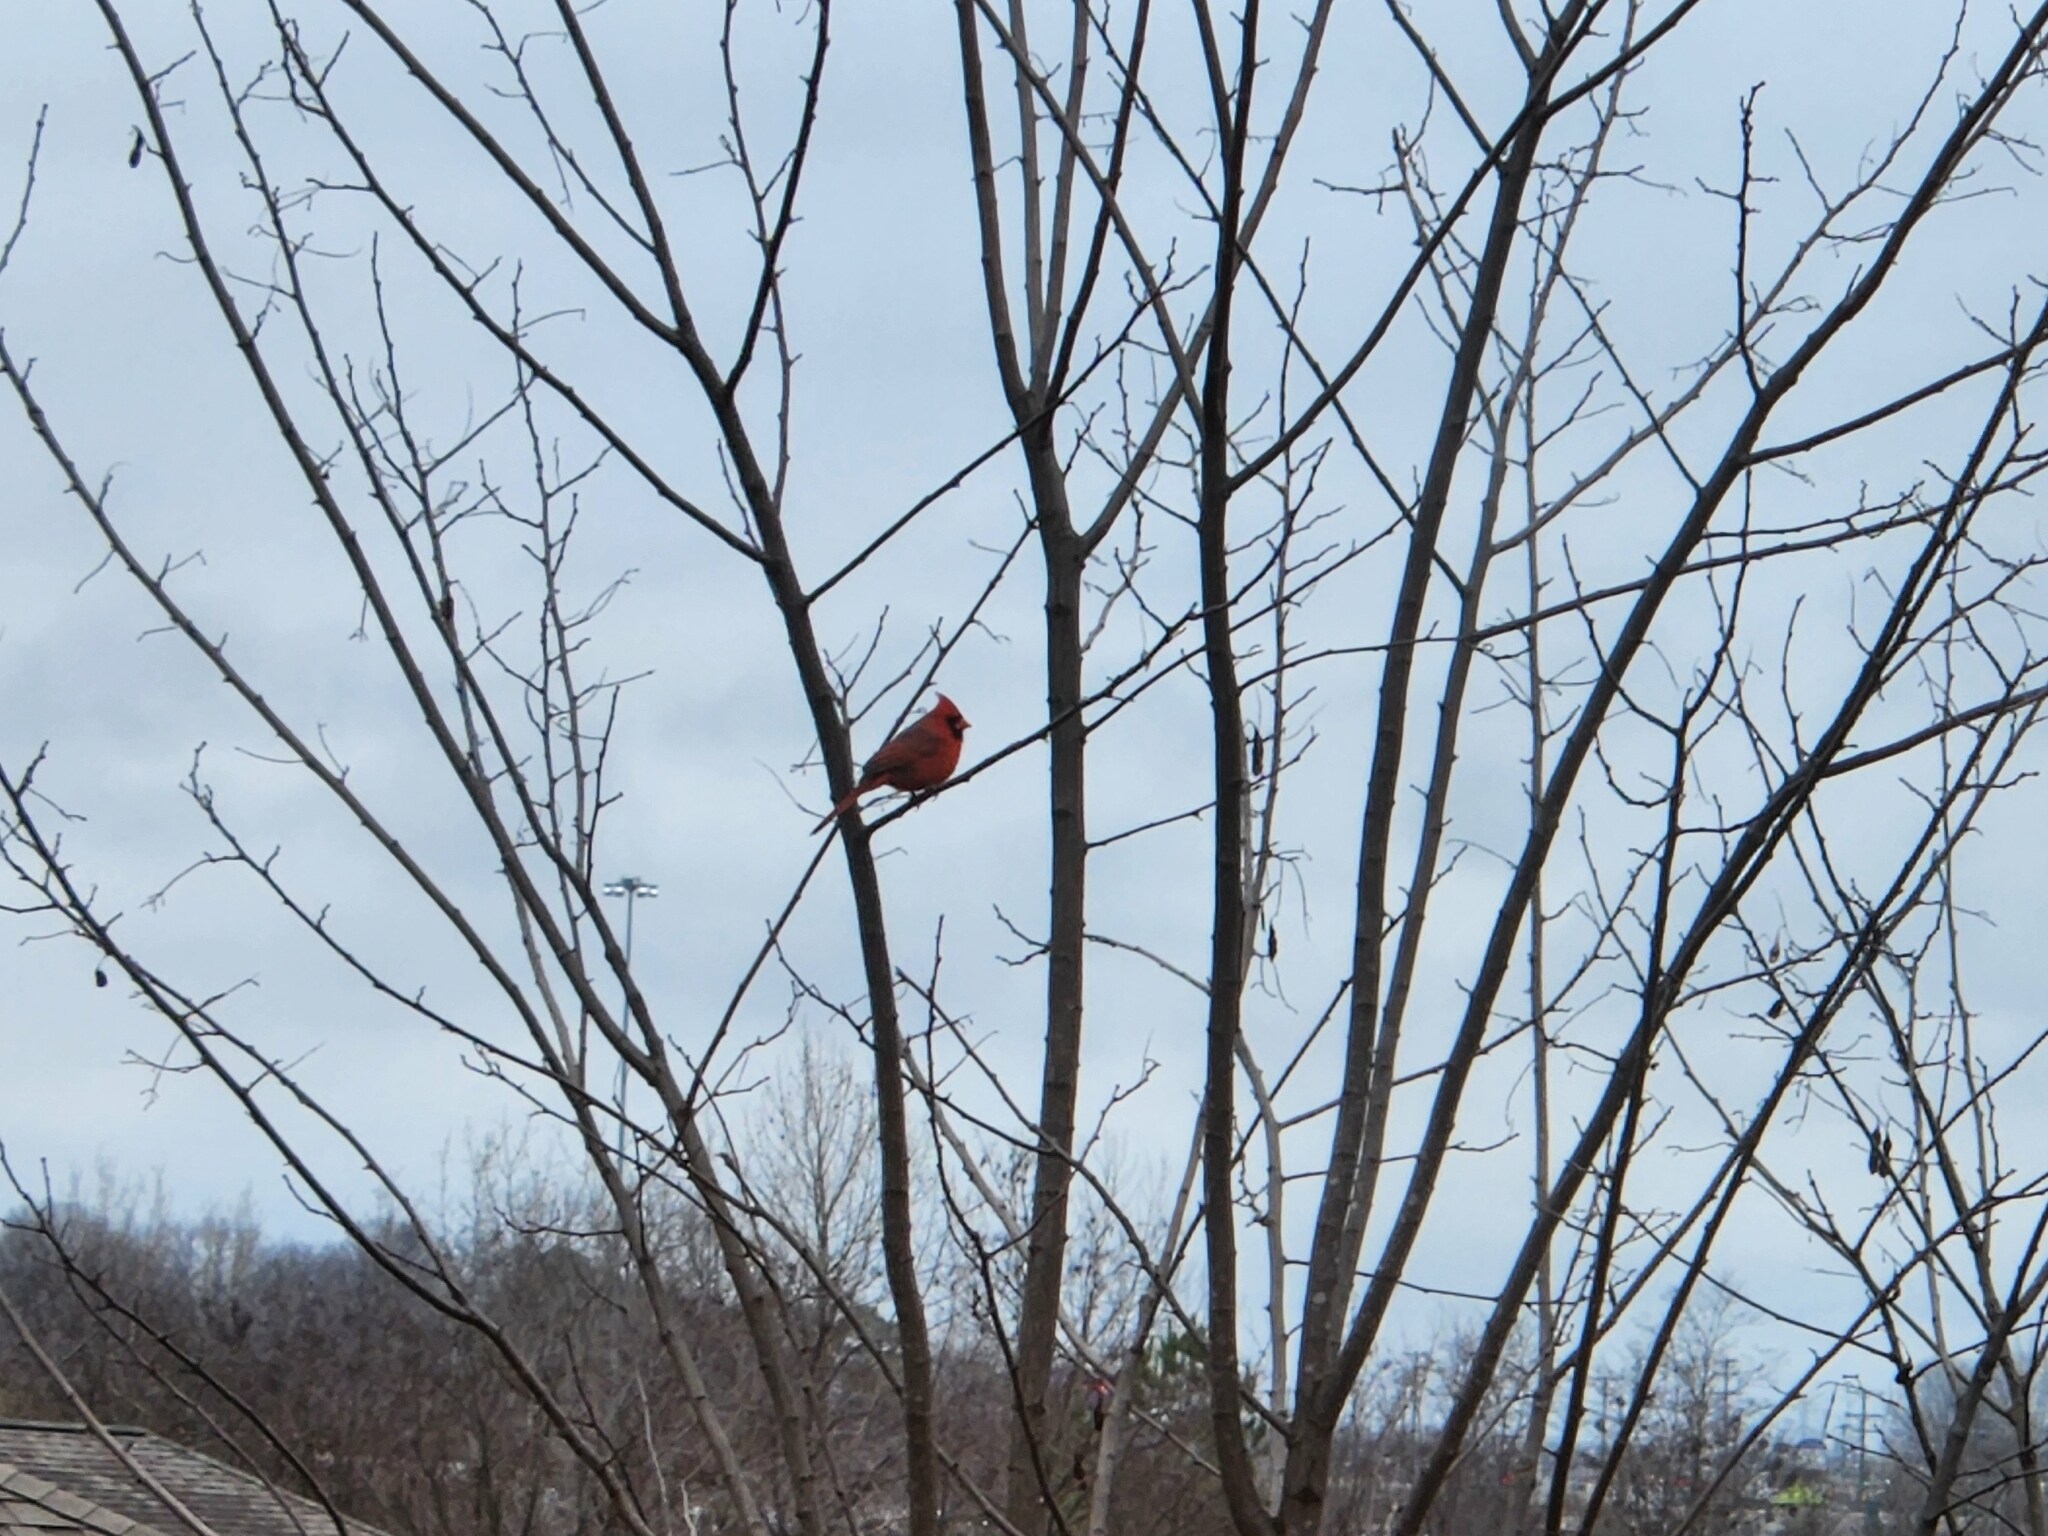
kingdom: Animalia
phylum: Chordata
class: Aves
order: Passeriformes
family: Cardinalidae
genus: Cardinalis
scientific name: Cardinalis cardinalis
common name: Northern cardinal
